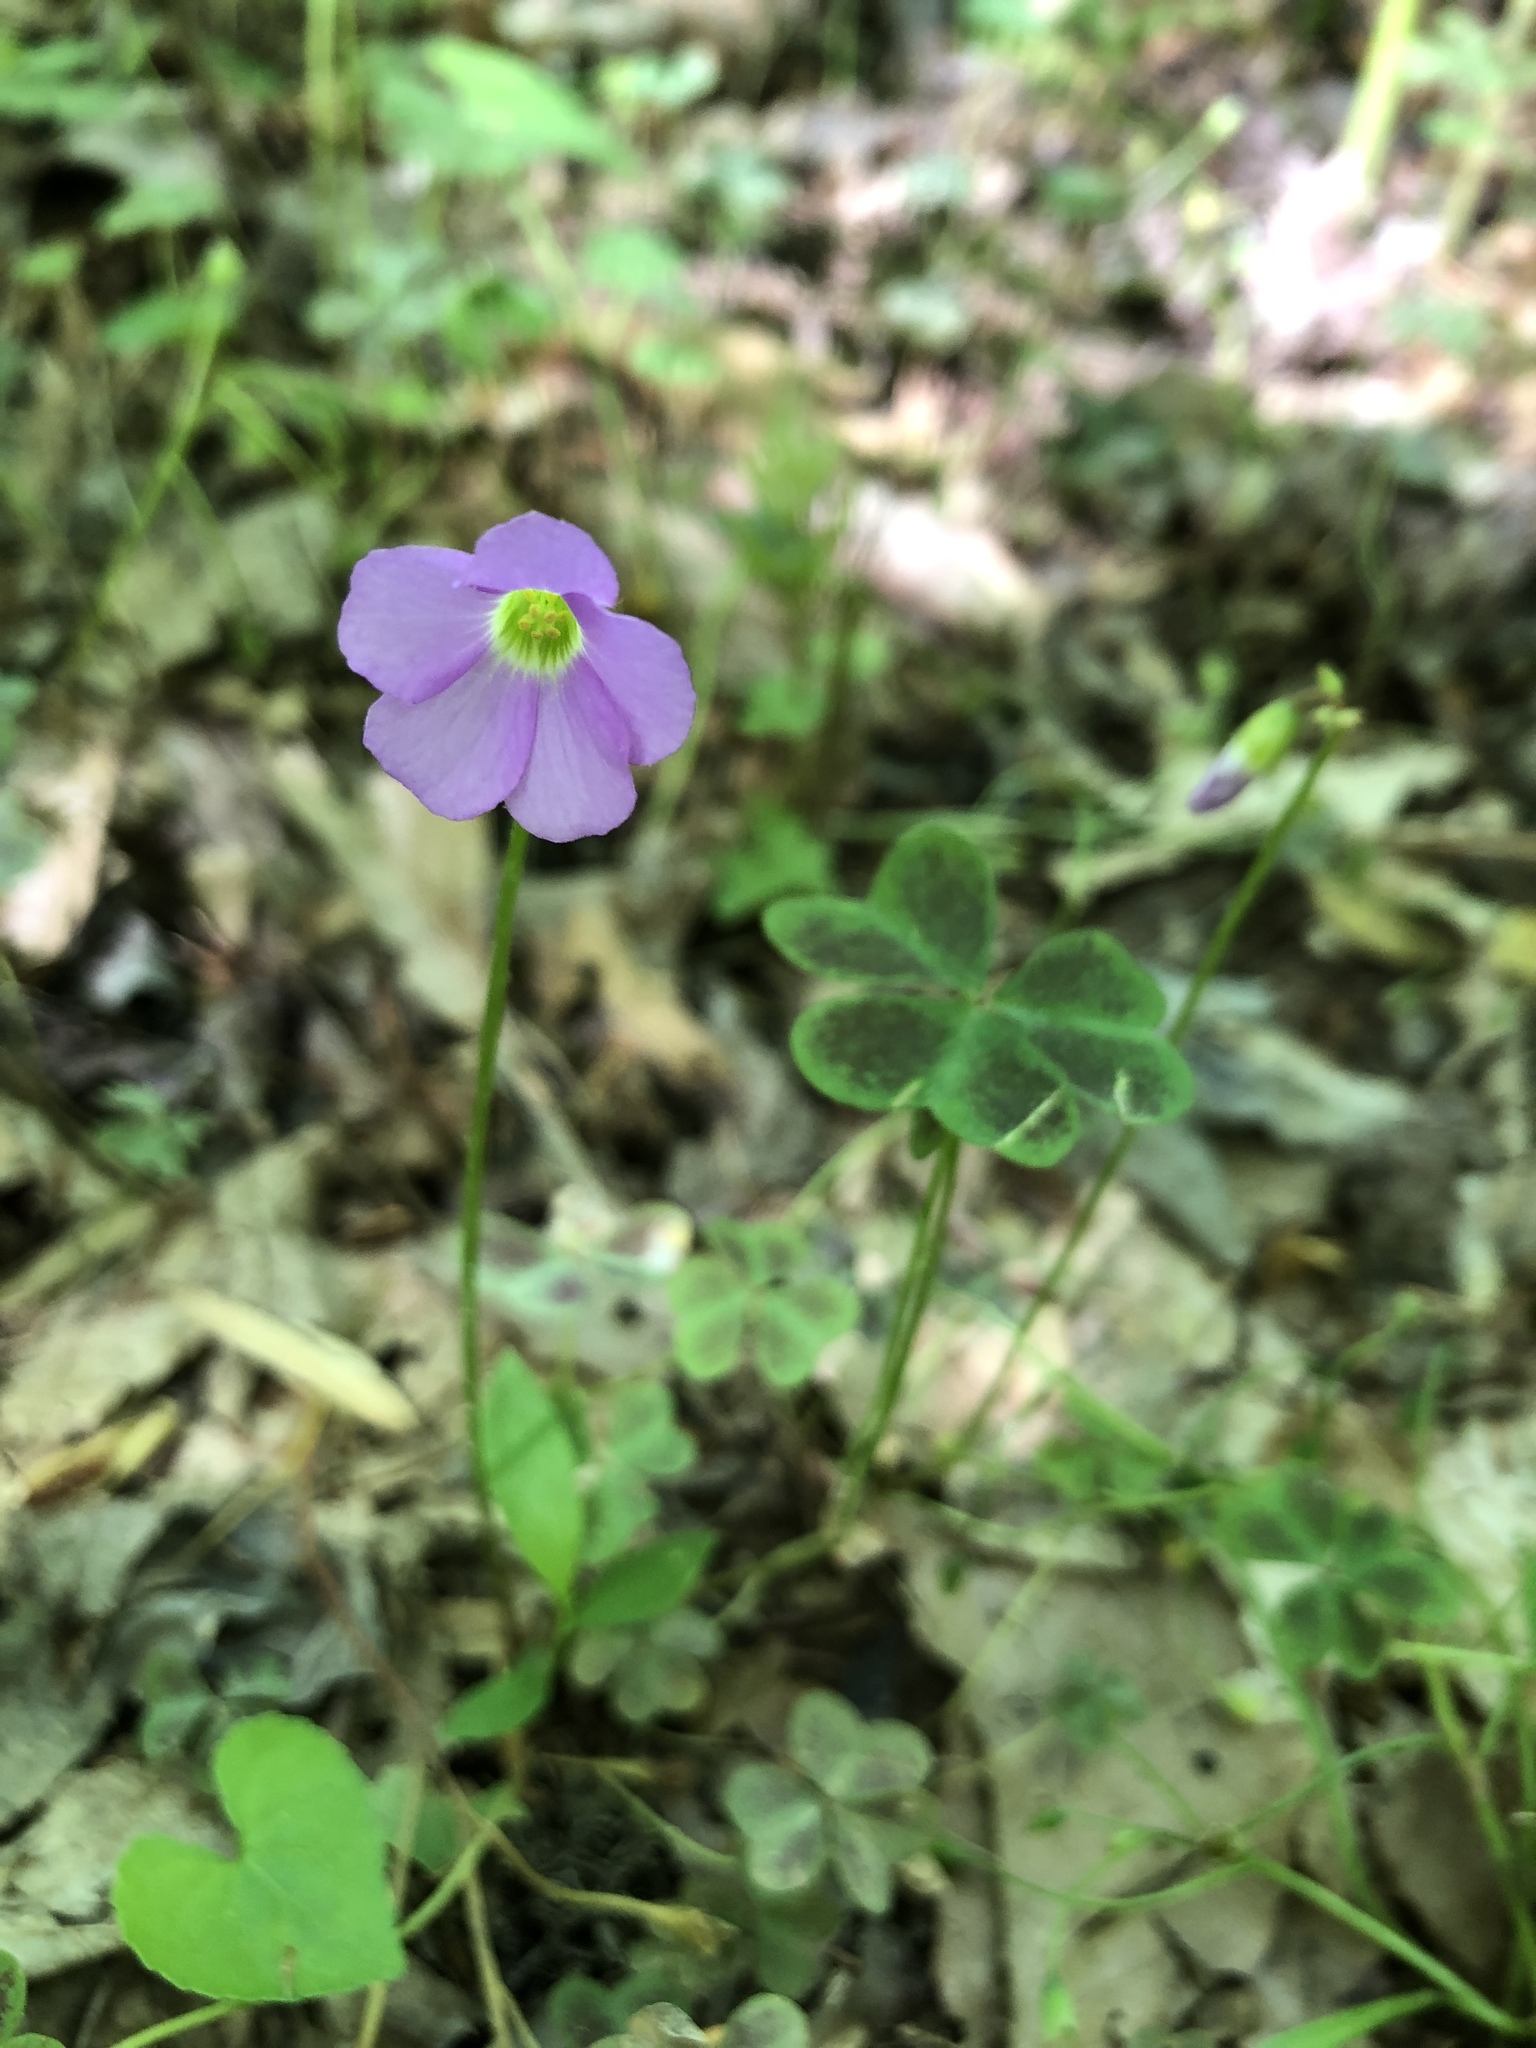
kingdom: Plantae
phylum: Tracheophyta
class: Magnoliopsida
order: Oxalidales
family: Oxalidaceae
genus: Oxalis
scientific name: Oxalis violacea
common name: Violet wood-sorrel
